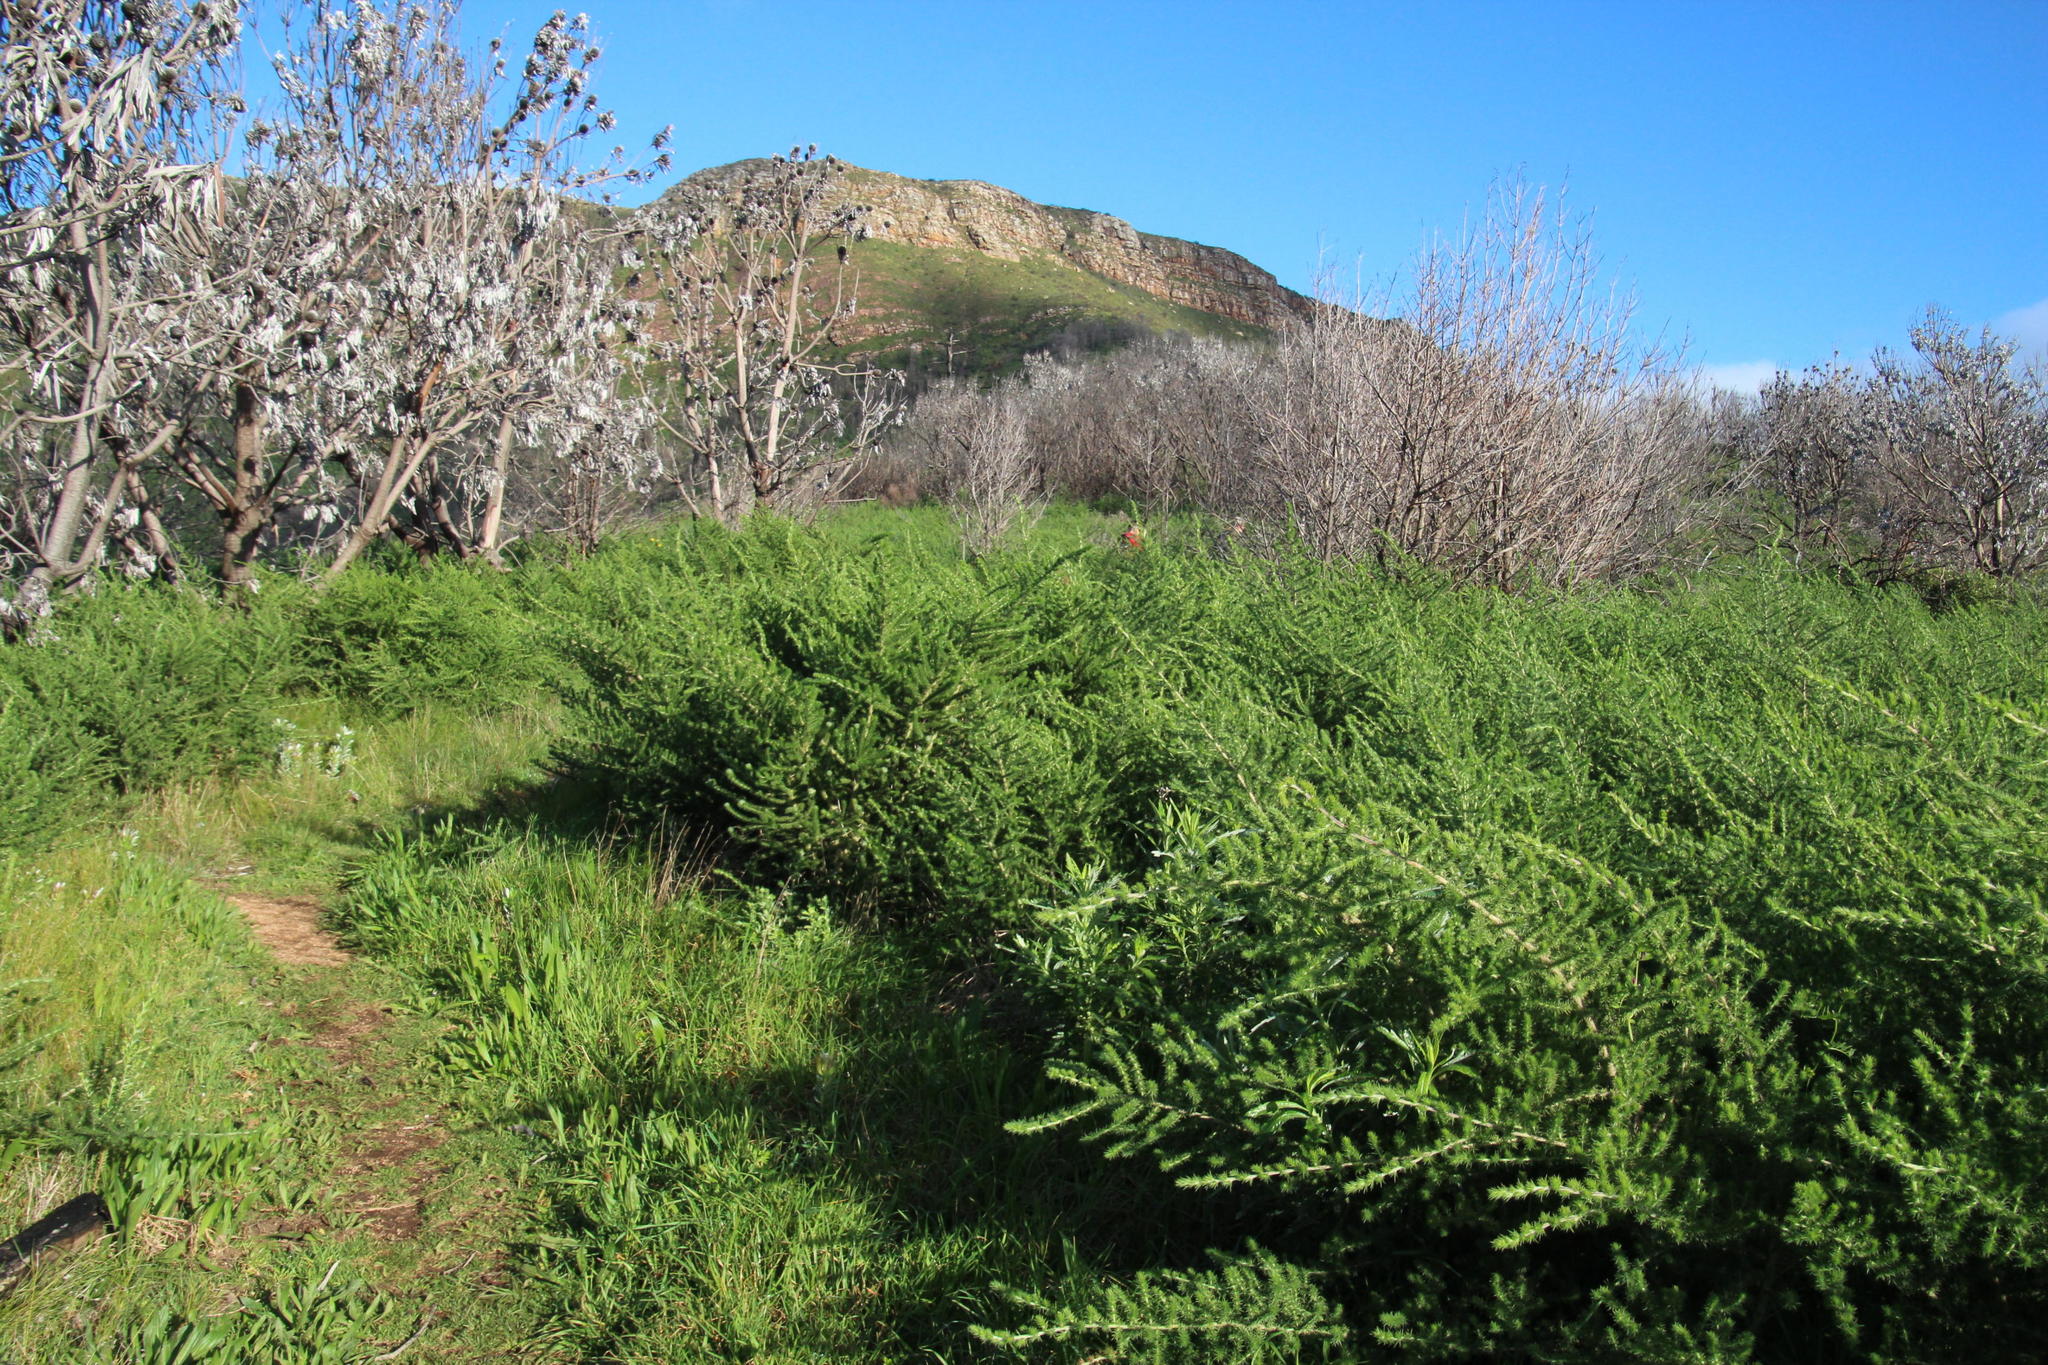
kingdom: Plantae
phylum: Tracheophyta
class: Magnoliopsida
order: Fabales
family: Fabaceae
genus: Aspalathus
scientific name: Aspalathus chenopoda
